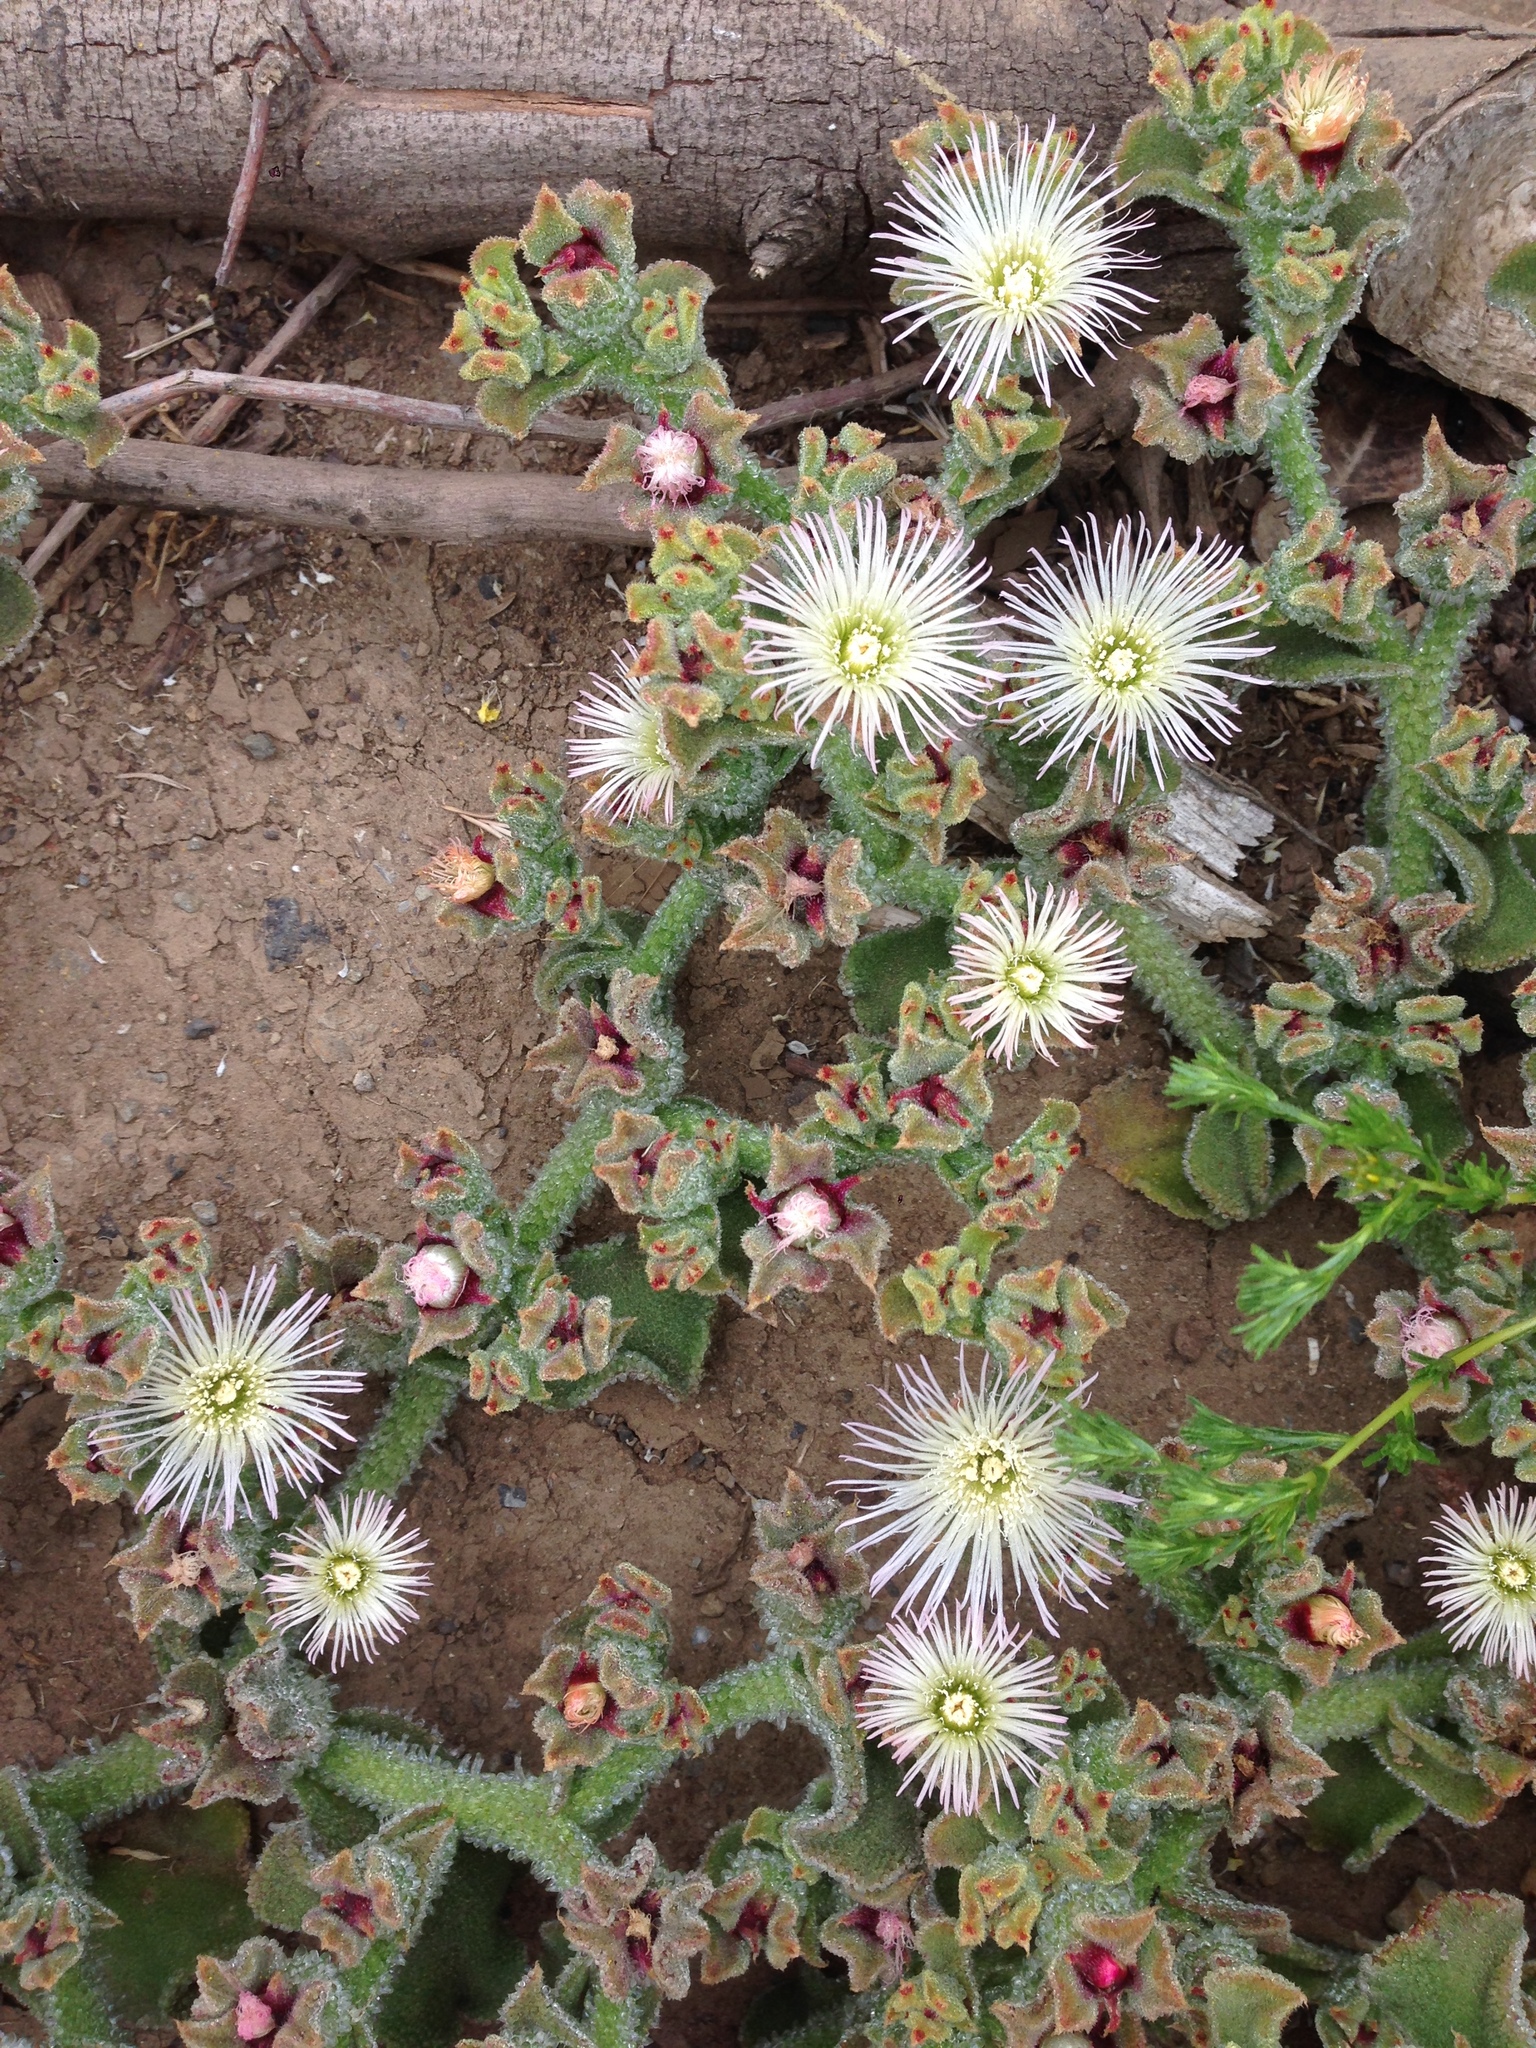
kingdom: Plantae
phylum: Tracheophyta
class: Magnoliopsida
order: Caryophyllales
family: Aizoaceae
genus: Mesembryanthemum
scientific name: Mesembryanthemum crystallinum
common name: Common iceplant
